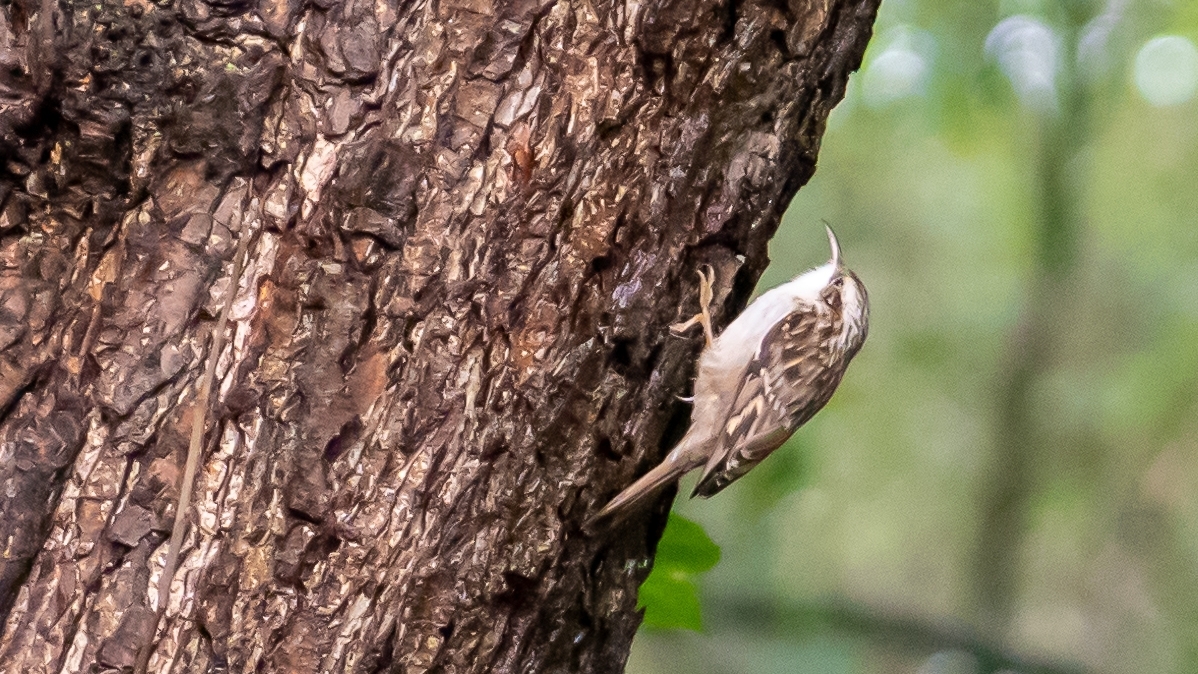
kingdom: Animalia
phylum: Chordata
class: Aves
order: Passeriformes
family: Certhiidae
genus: Certhia
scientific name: Certhia brachydactyla
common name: Short-toed treecreeper
